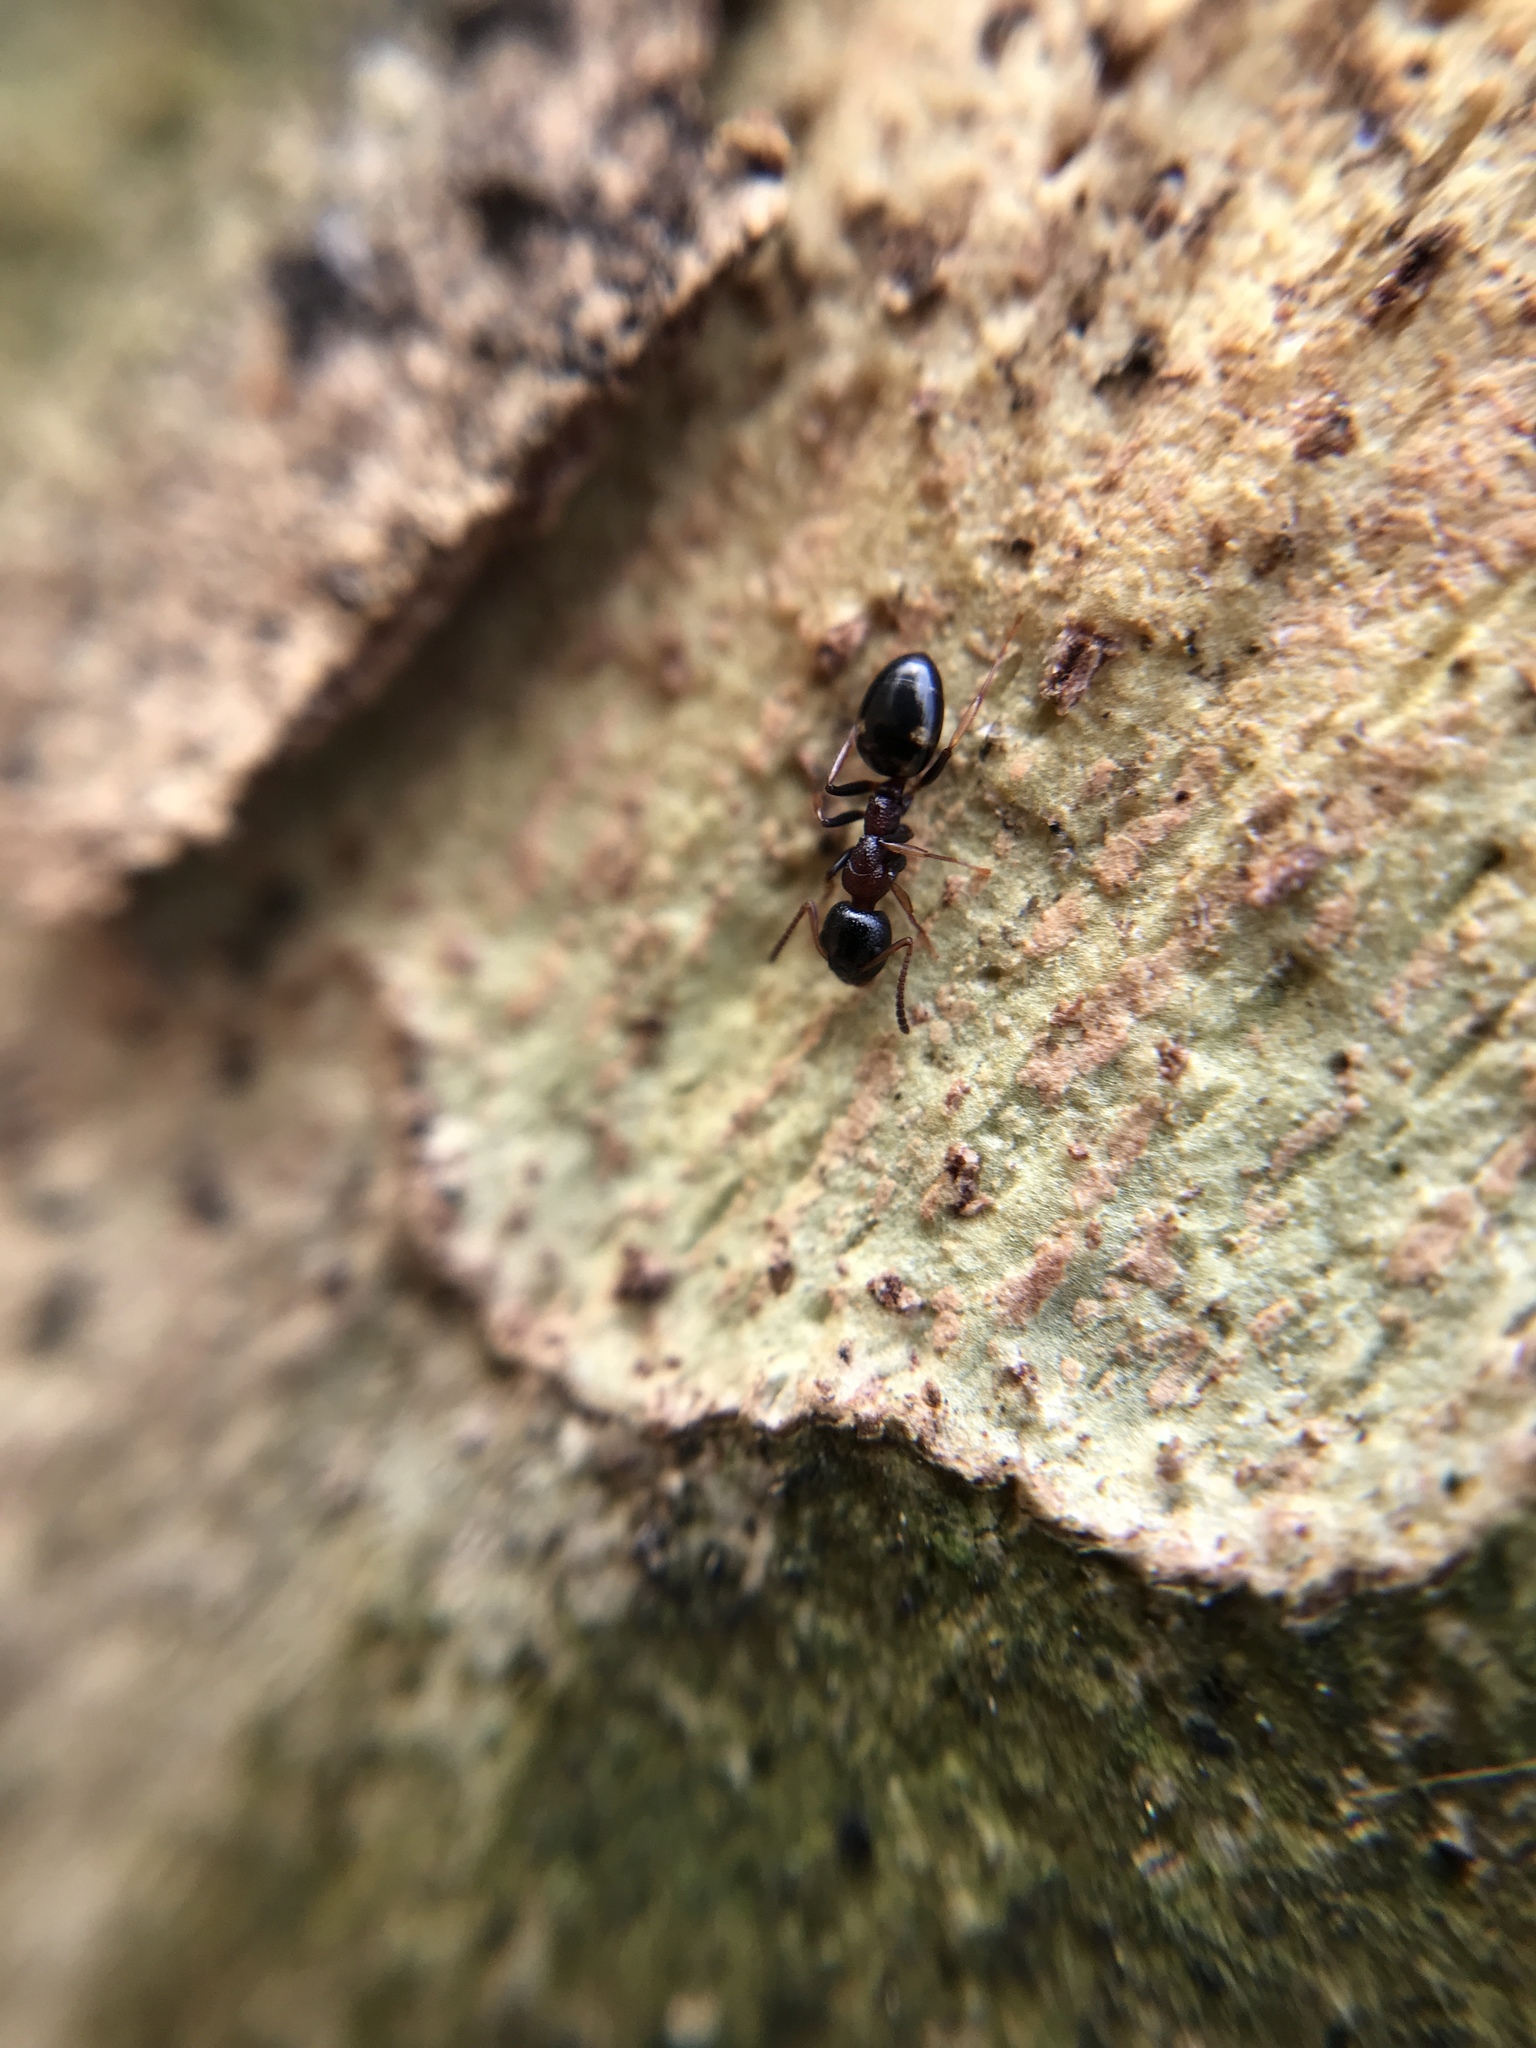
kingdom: Animalia
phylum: Arthropoda
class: Insecta
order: Hymenoptera
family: Formicidae
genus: Dolichoderus
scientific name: Dolichoderus quadripunctatus
